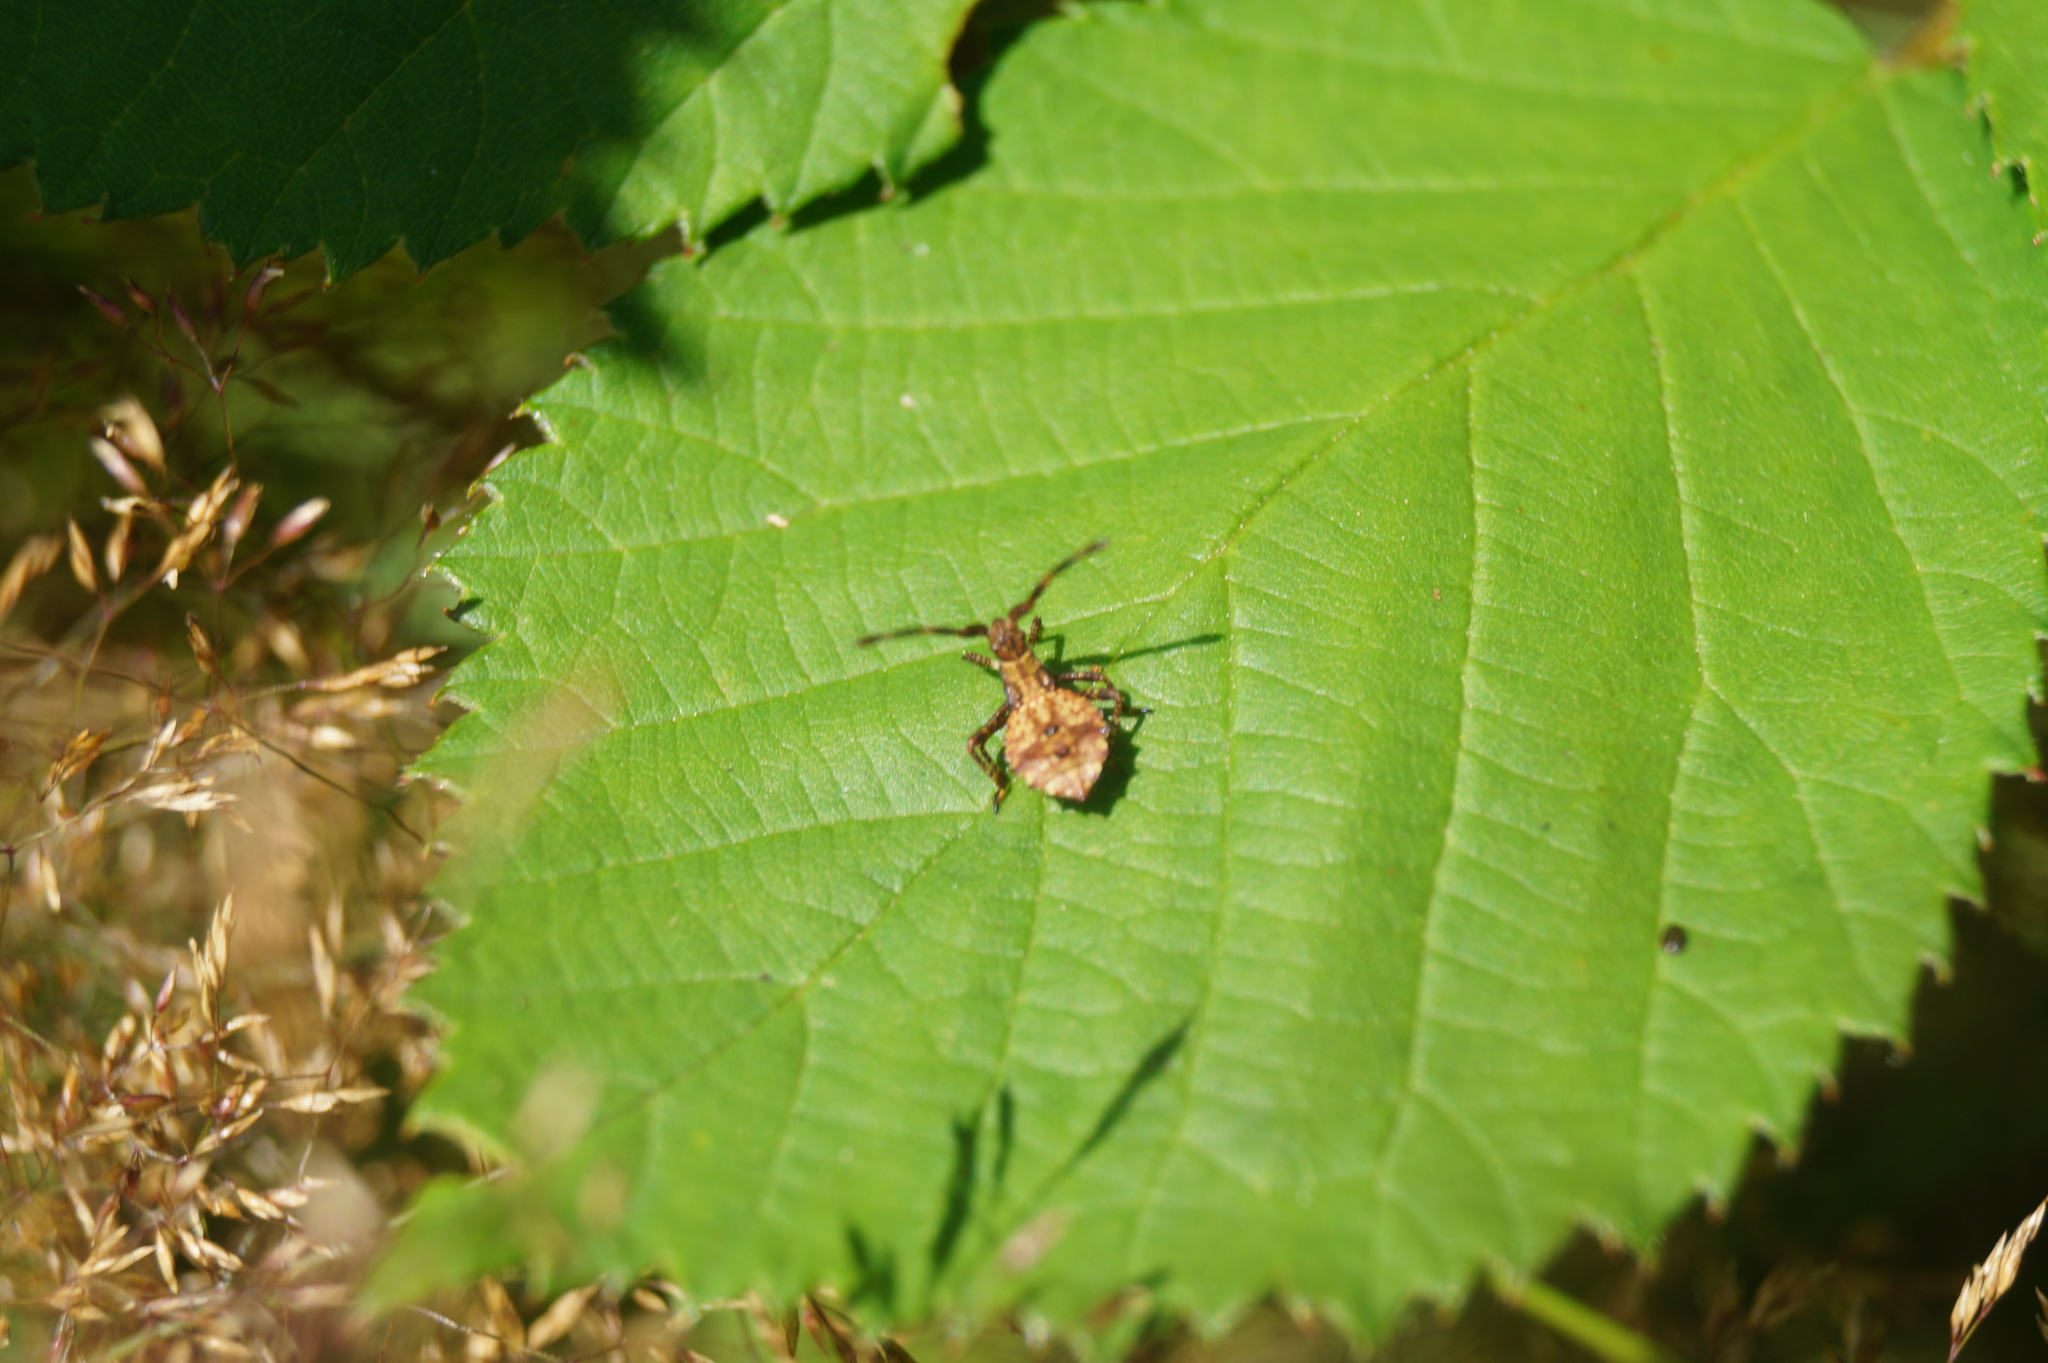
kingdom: Animalia
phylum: Arthropoda
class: Insecta
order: Hemiptera
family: Coreidae
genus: Coreus
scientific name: Coreus marginatus
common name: Dock bug
